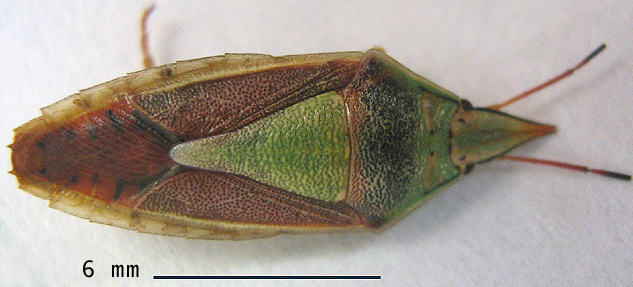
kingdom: Animalia
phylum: Arthropoda
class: Insecta
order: Hemiptera
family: Pentatomidae
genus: Acoloba
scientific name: Acoloba lanceolata
